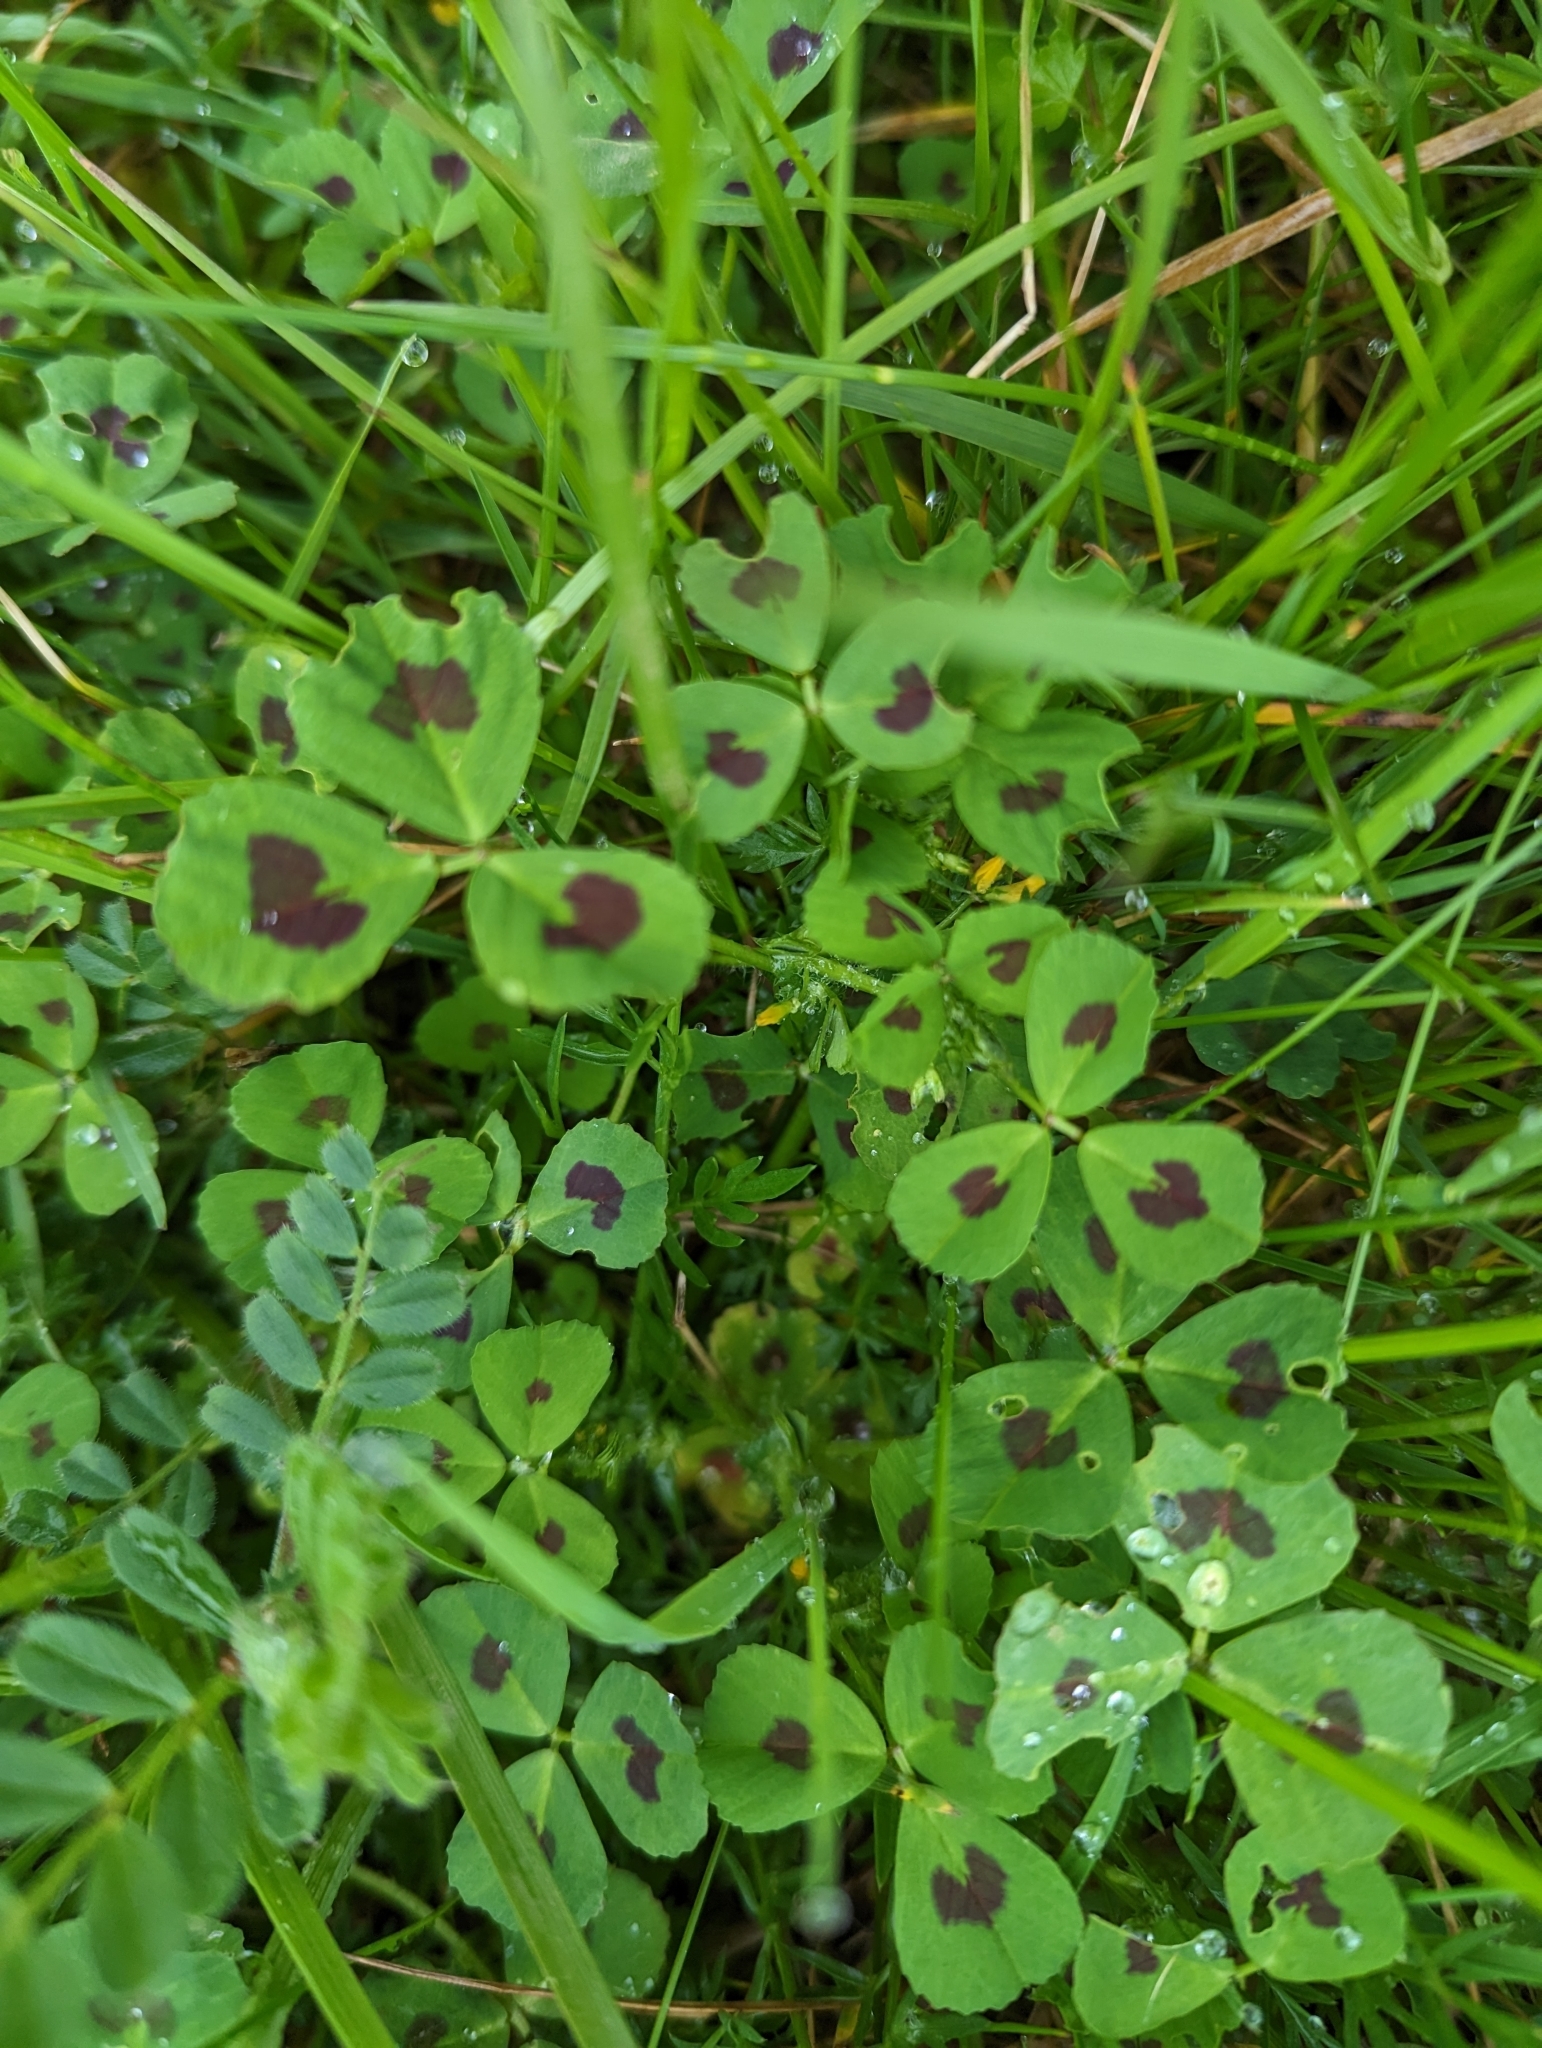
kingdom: Plantae
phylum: Tracheophyta
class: Magnoliopsida
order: Fabales
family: Fabaceae
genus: Medicago
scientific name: Medicago arabica
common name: Spotted medick
